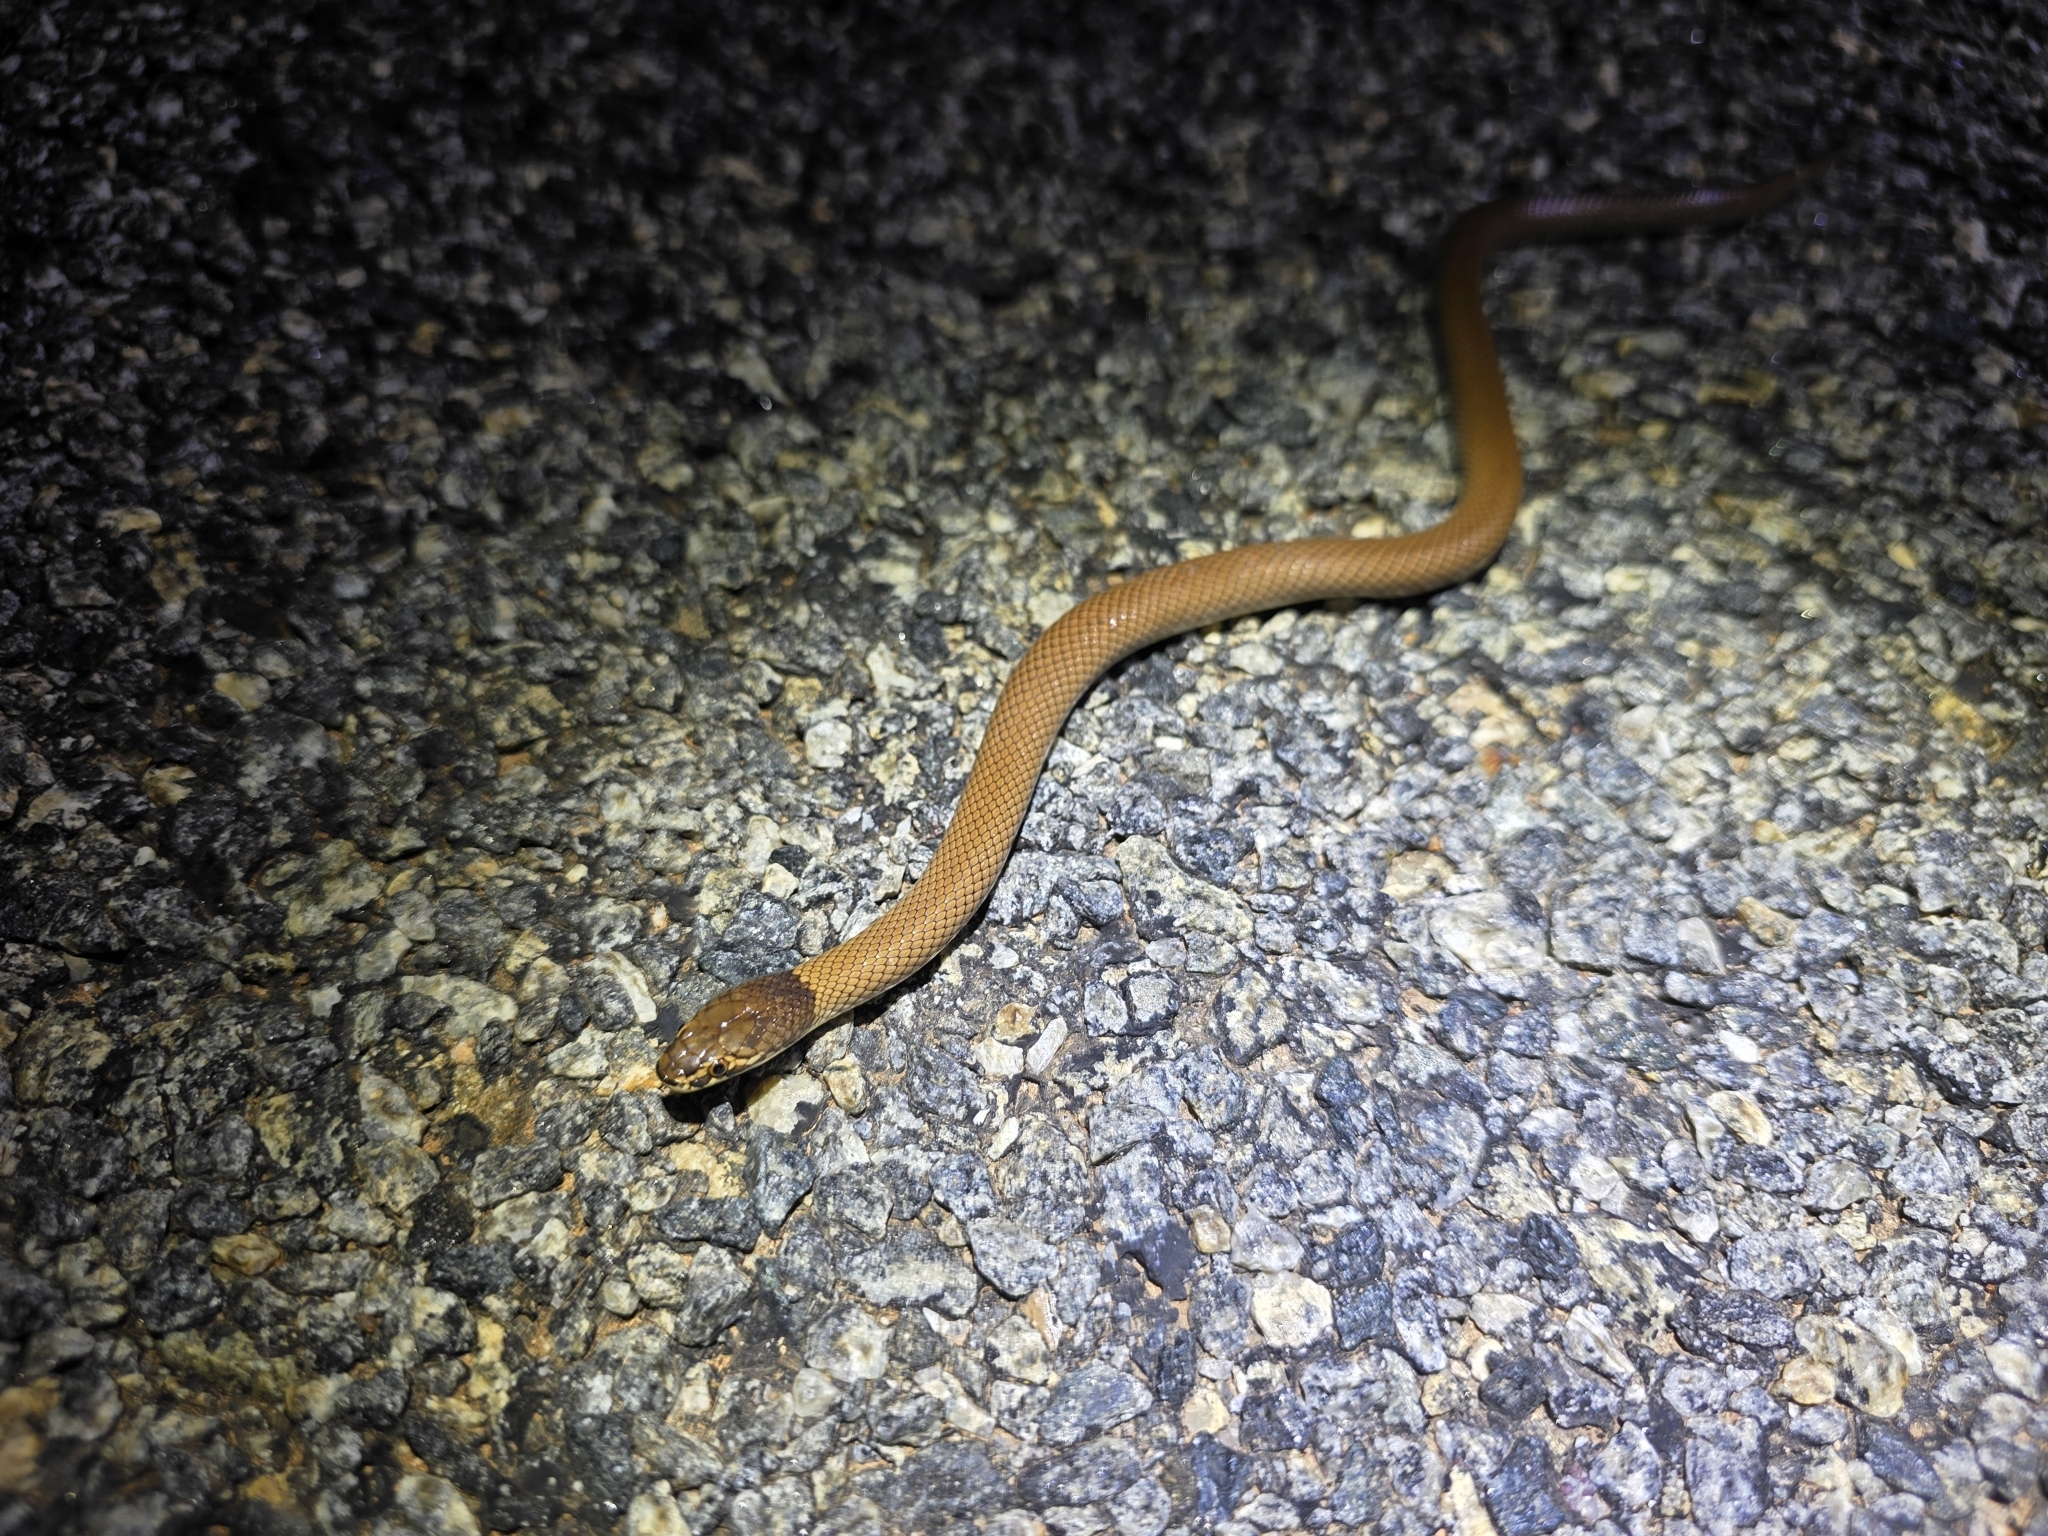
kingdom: Animalia
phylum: Chordata
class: Squamata
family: Elapidae
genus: Suta
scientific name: Suta suta
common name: Curl snake
